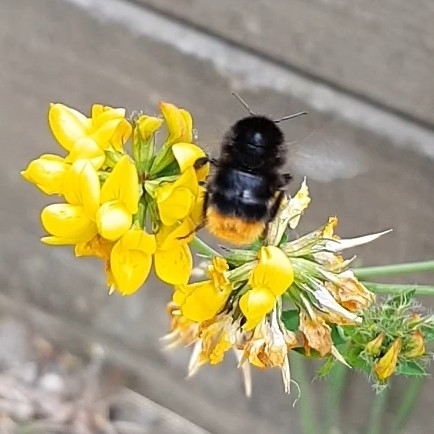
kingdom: Animalia
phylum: Arthropoda
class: Insecta
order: Hymenoptera
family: Apidae
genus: Bombus
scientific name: Bombus lapidarius
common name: Large red-tailed humble-bee
